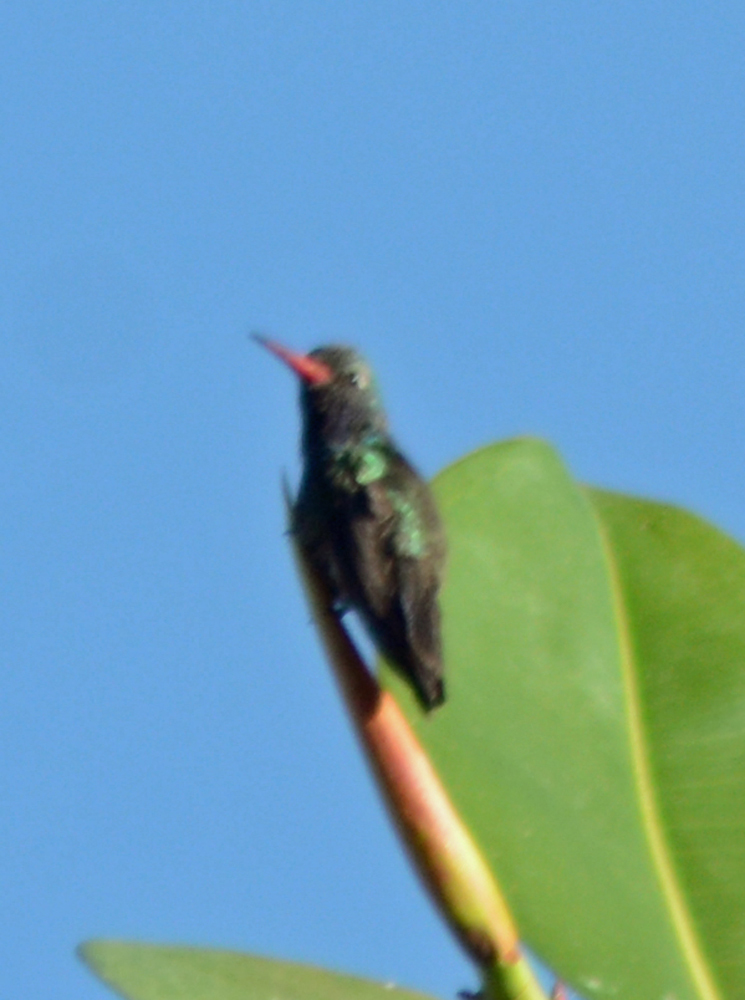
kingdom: Animalia
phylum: Chordata
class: Aves
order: Apodiformes
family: Trochilidae
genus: Cynanthus
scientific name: Cynanthus latirostris
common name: Broad-billed hummingbird
